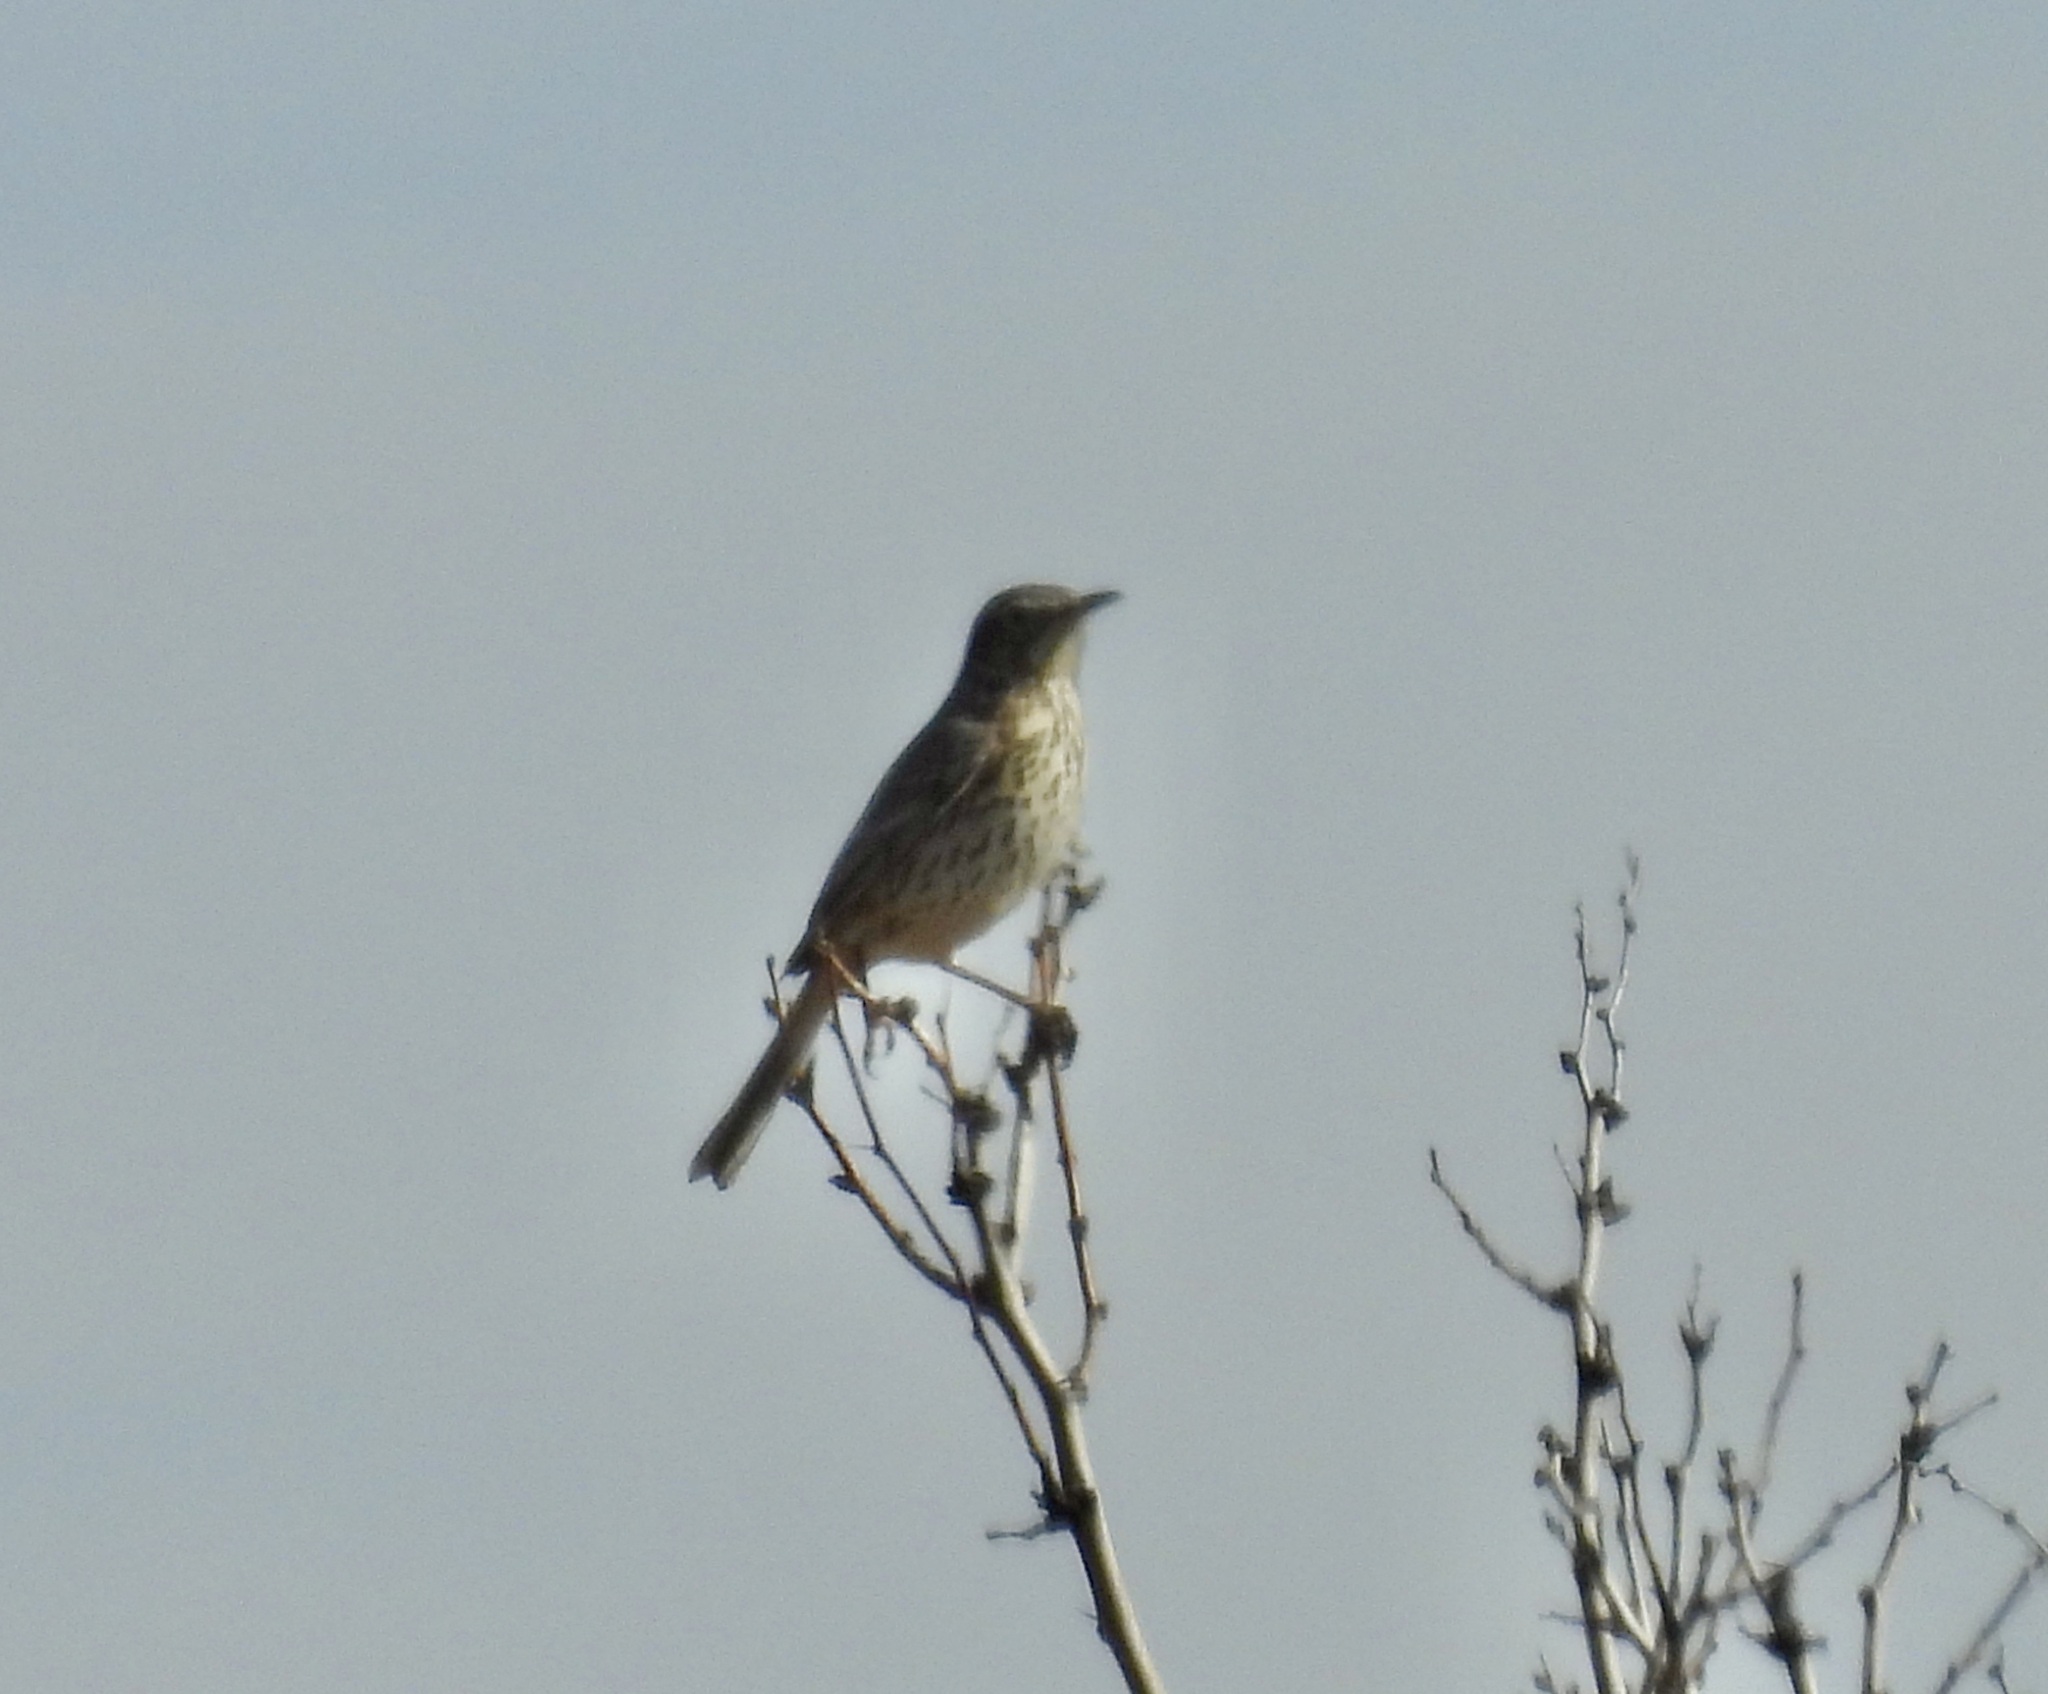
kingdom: Animalia
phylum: Chordata
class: Aves
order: Passeriformes
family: Mimidae
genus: Oreoscoptes
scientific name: Oreoscoptes montanus
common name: Sage thrasher
